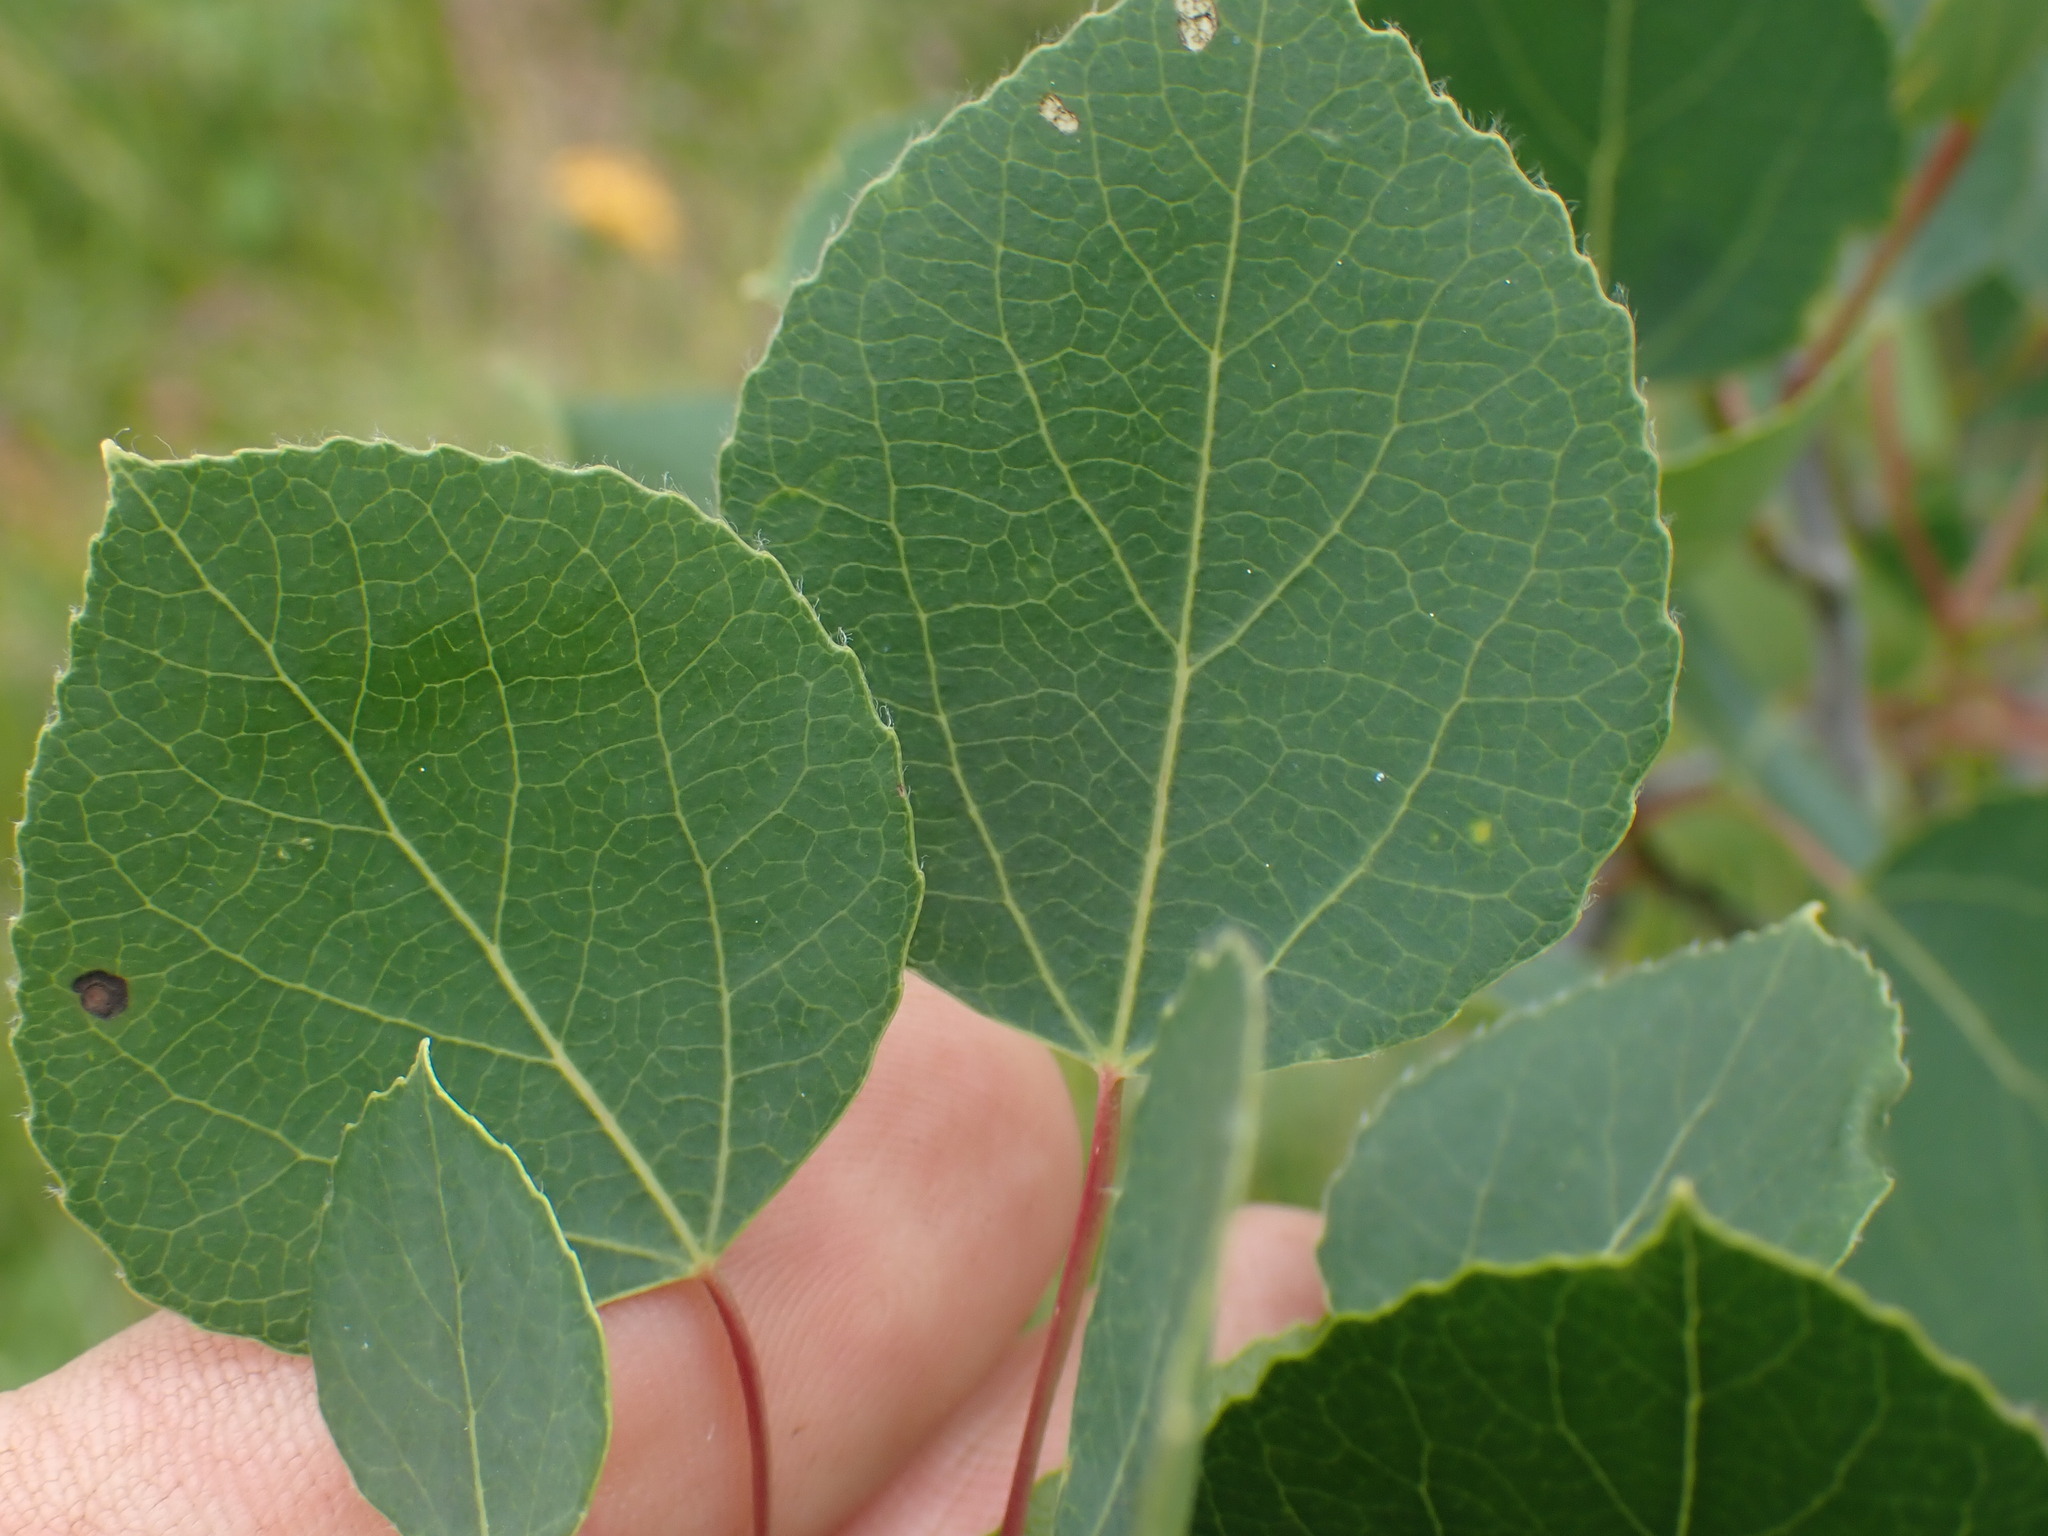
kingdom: Plantae
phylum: Tracheophyta
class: Magnoliopsida
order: Malpighiales
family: Salicaceae
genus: Populus
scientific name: Populus tremuloides
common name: Quaking aspen
